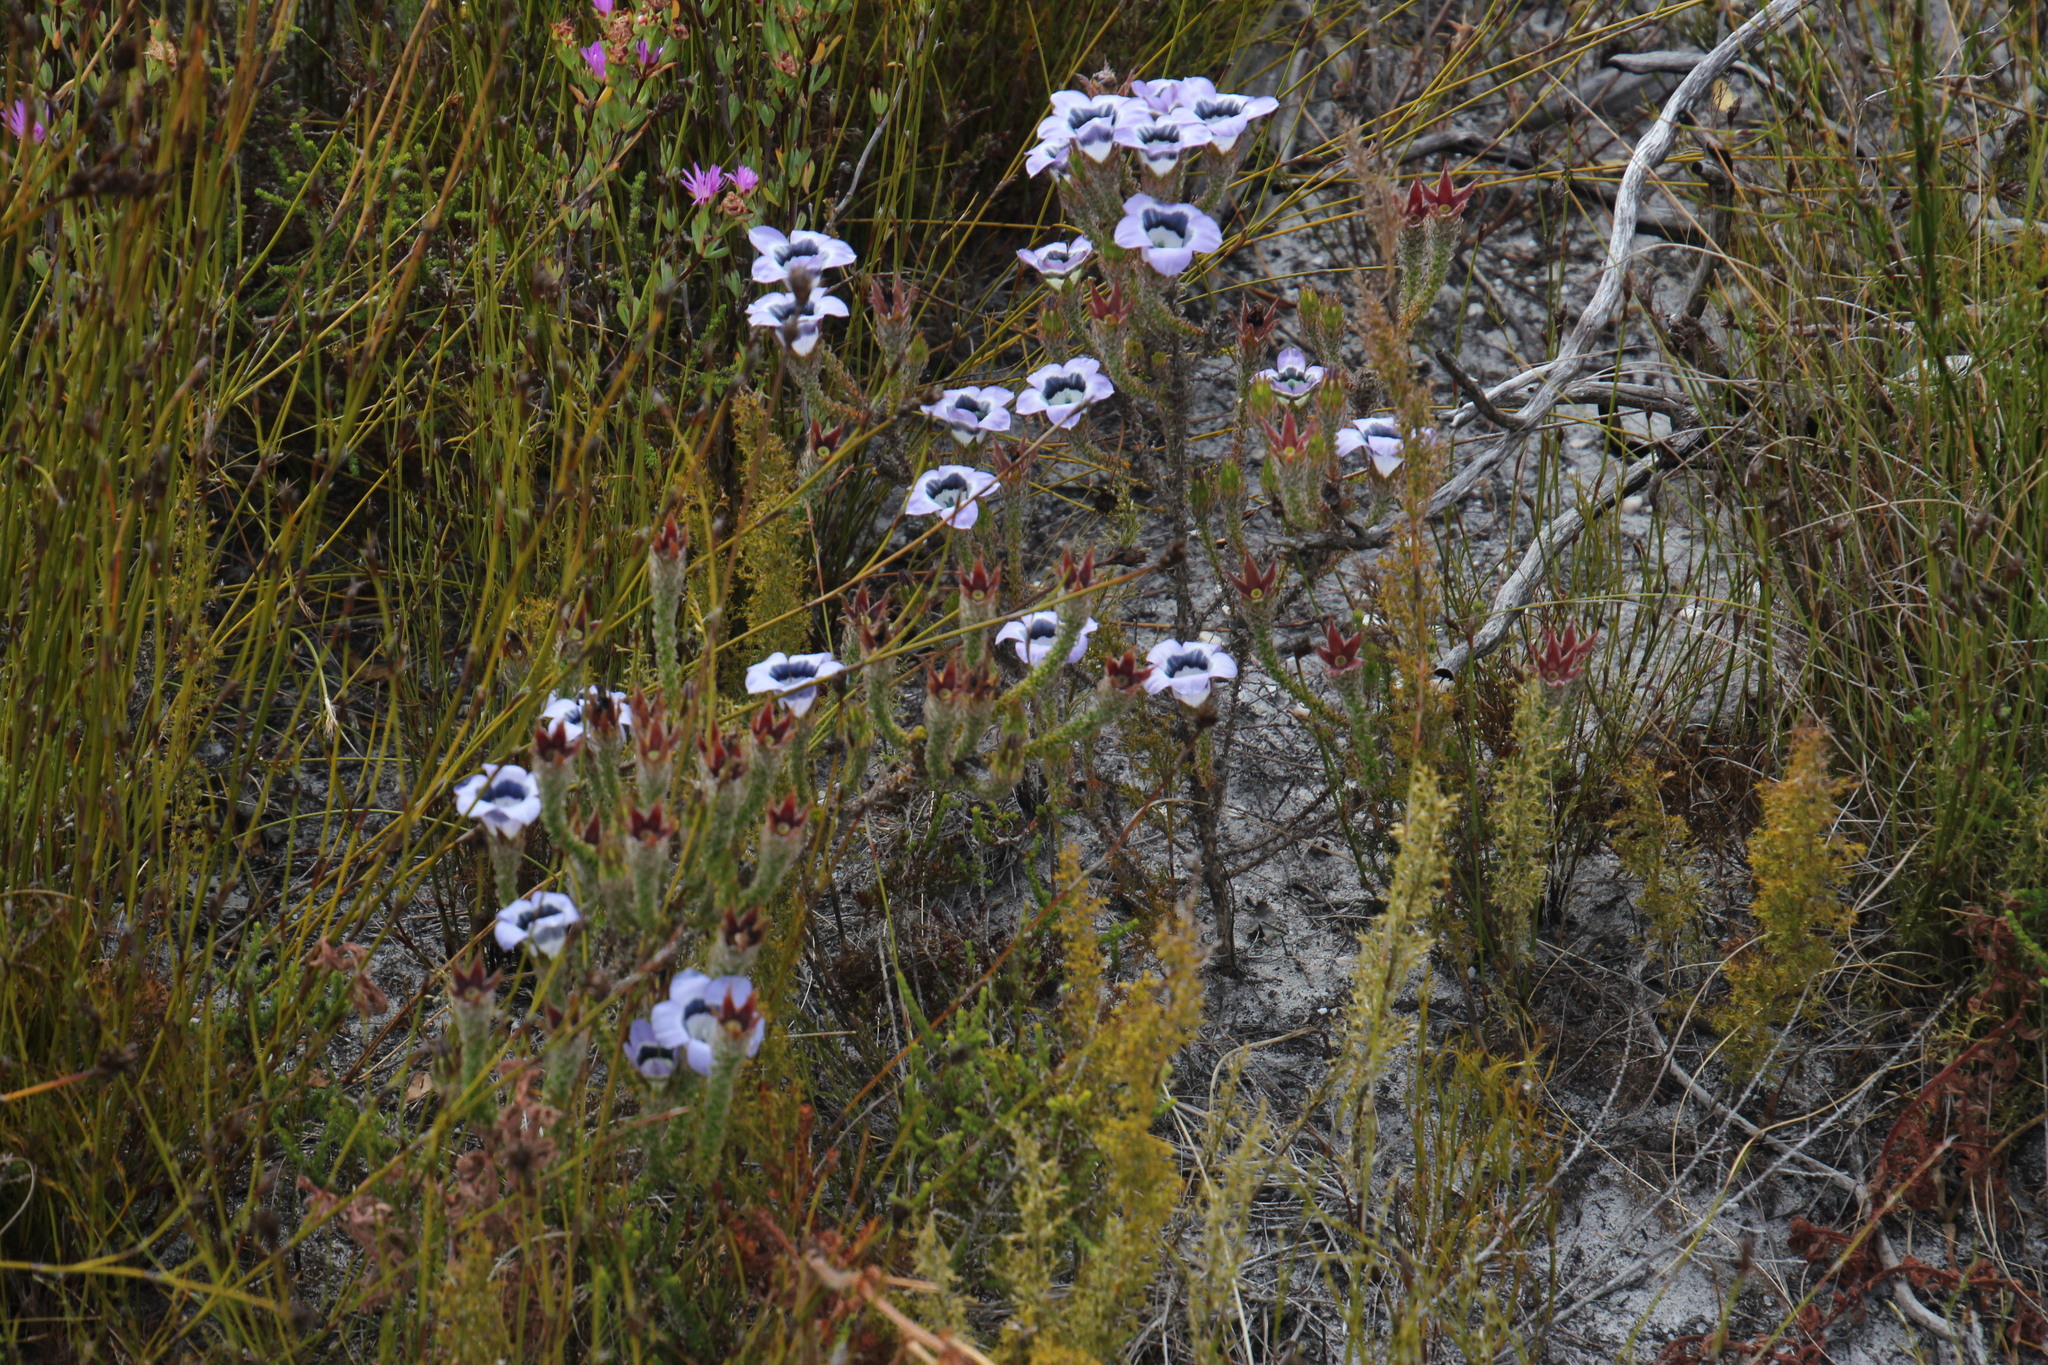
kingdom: Plantae
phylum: Tracheophyta
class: Magnoliopsida
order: Asterales
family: Campanulaceae
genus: Roella
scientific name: Roella ciliata
